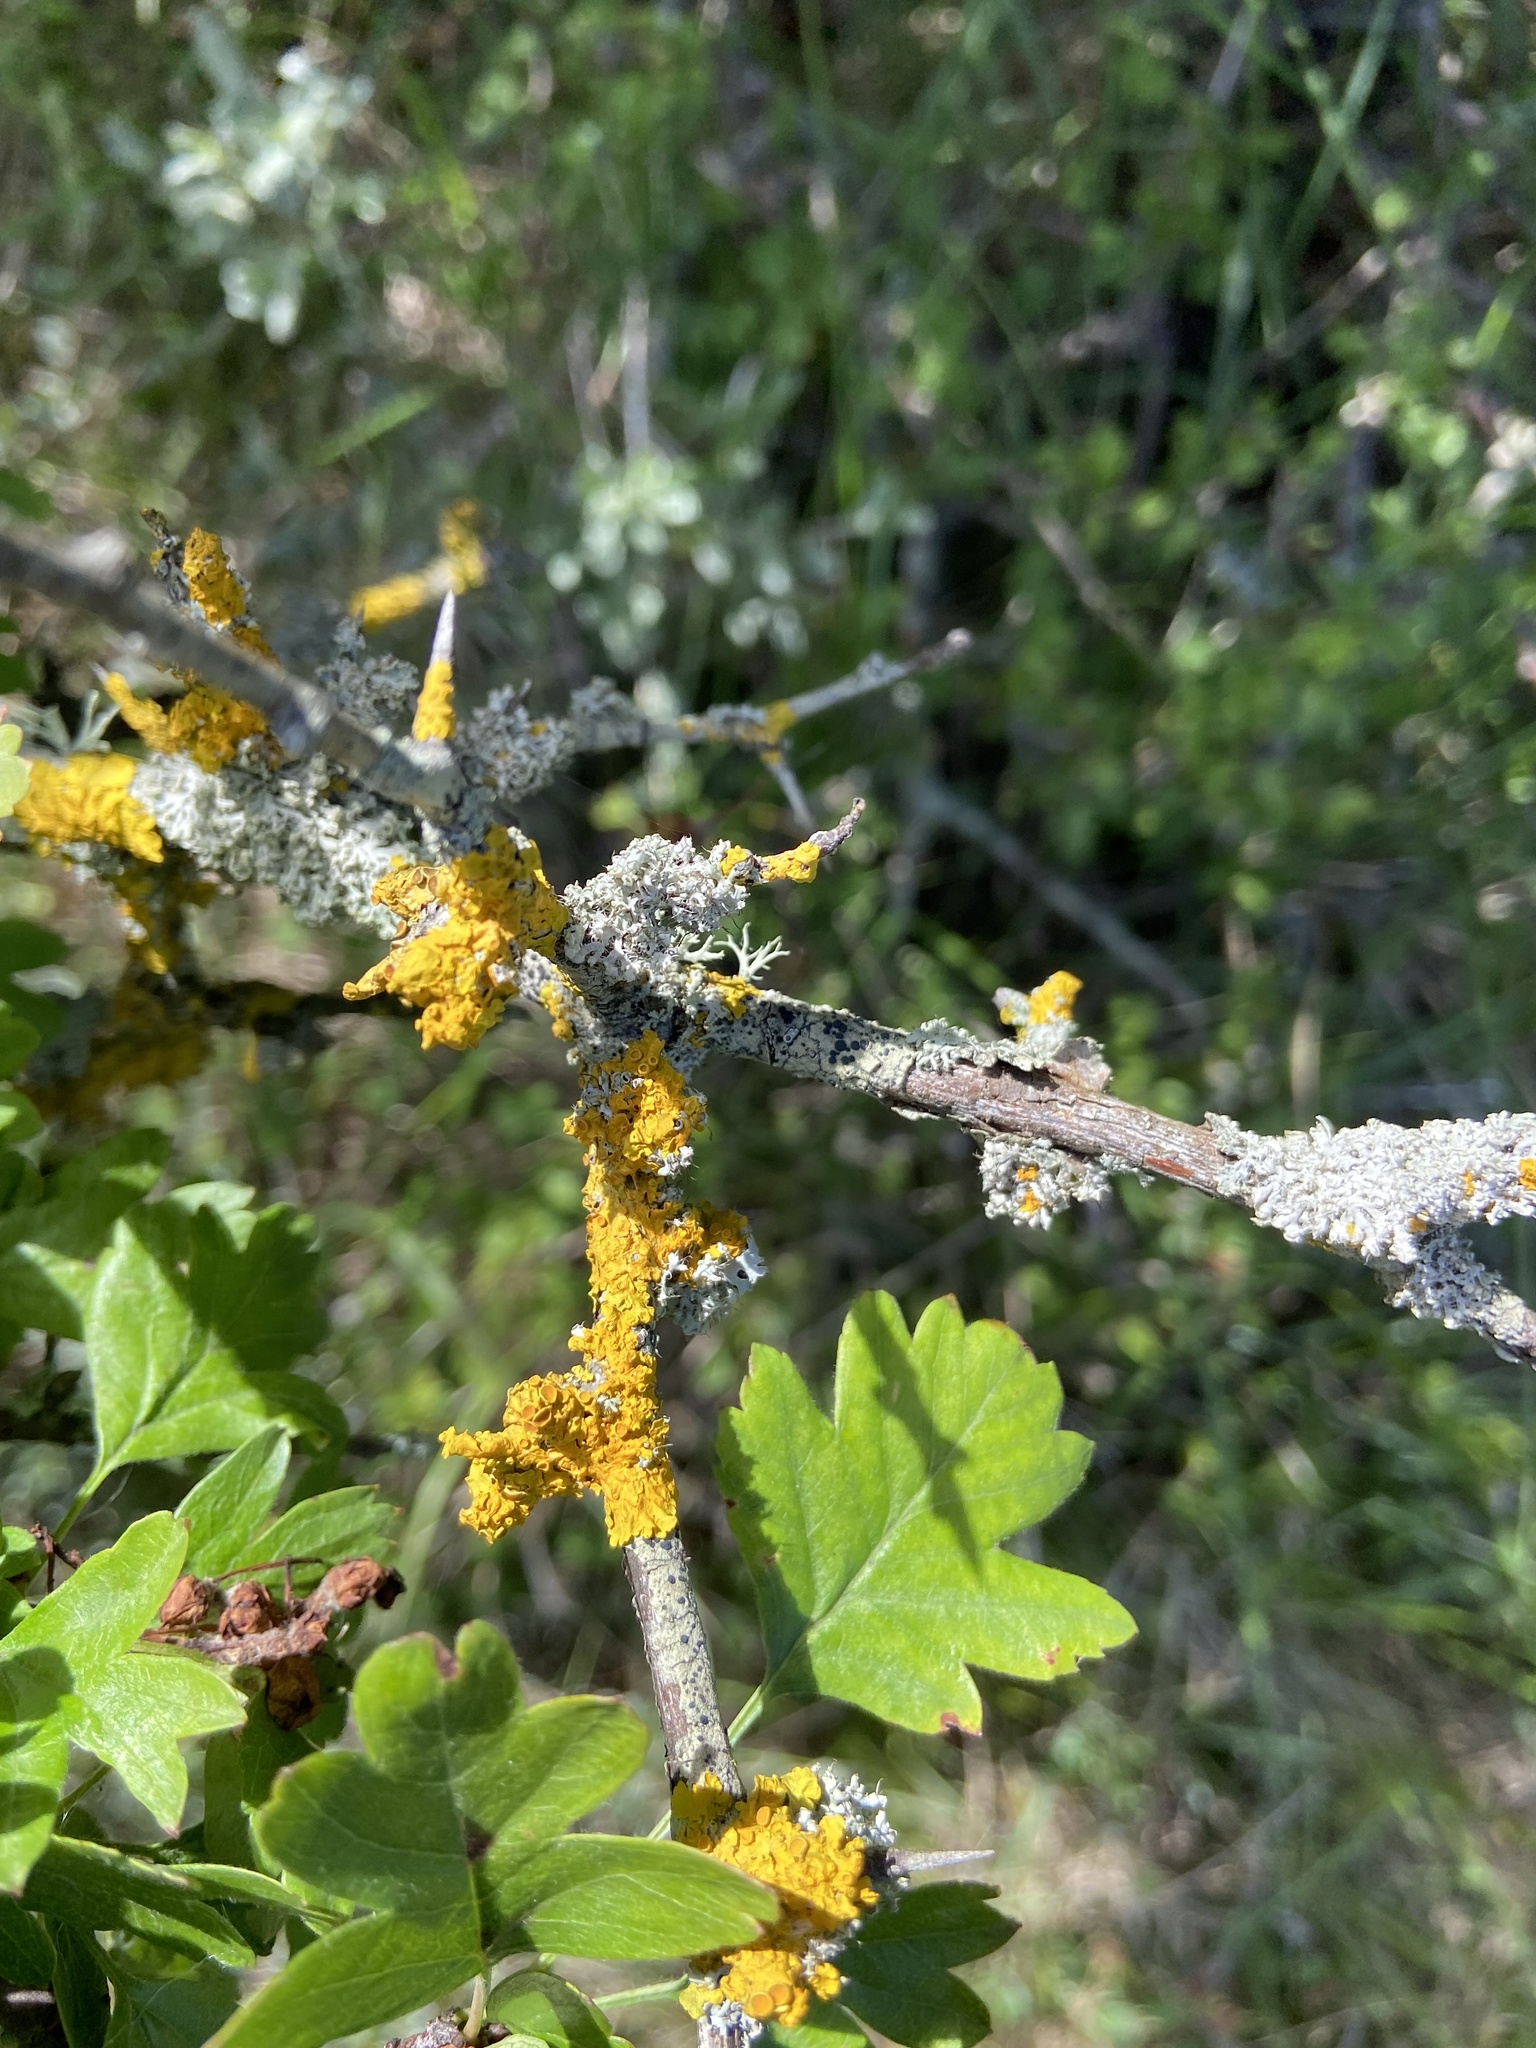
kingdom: Fungi
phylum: Ascomycota
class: Lecanoromycetes
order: Teloschistales
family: Teloschistaceae
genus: Xanthoria
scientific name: Xanthoria parietina
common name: Common orange lichen
